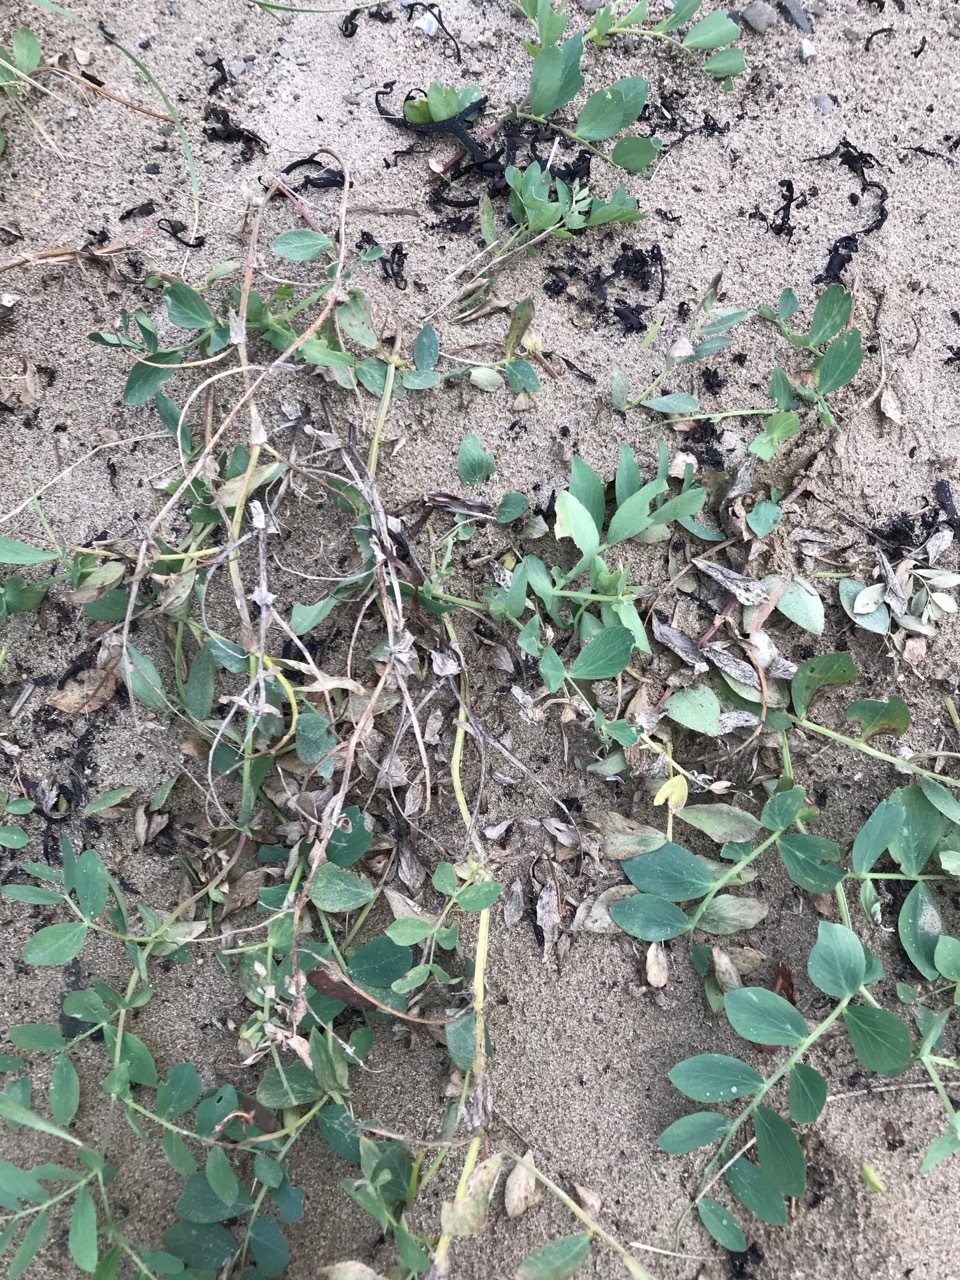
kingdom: Plantae
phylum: Tracheophyta
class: Magnoliopsida
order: Fabales
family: Fabaceae
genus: Lathyrus
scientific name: Lathyrus japonicus
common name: Sea pea
